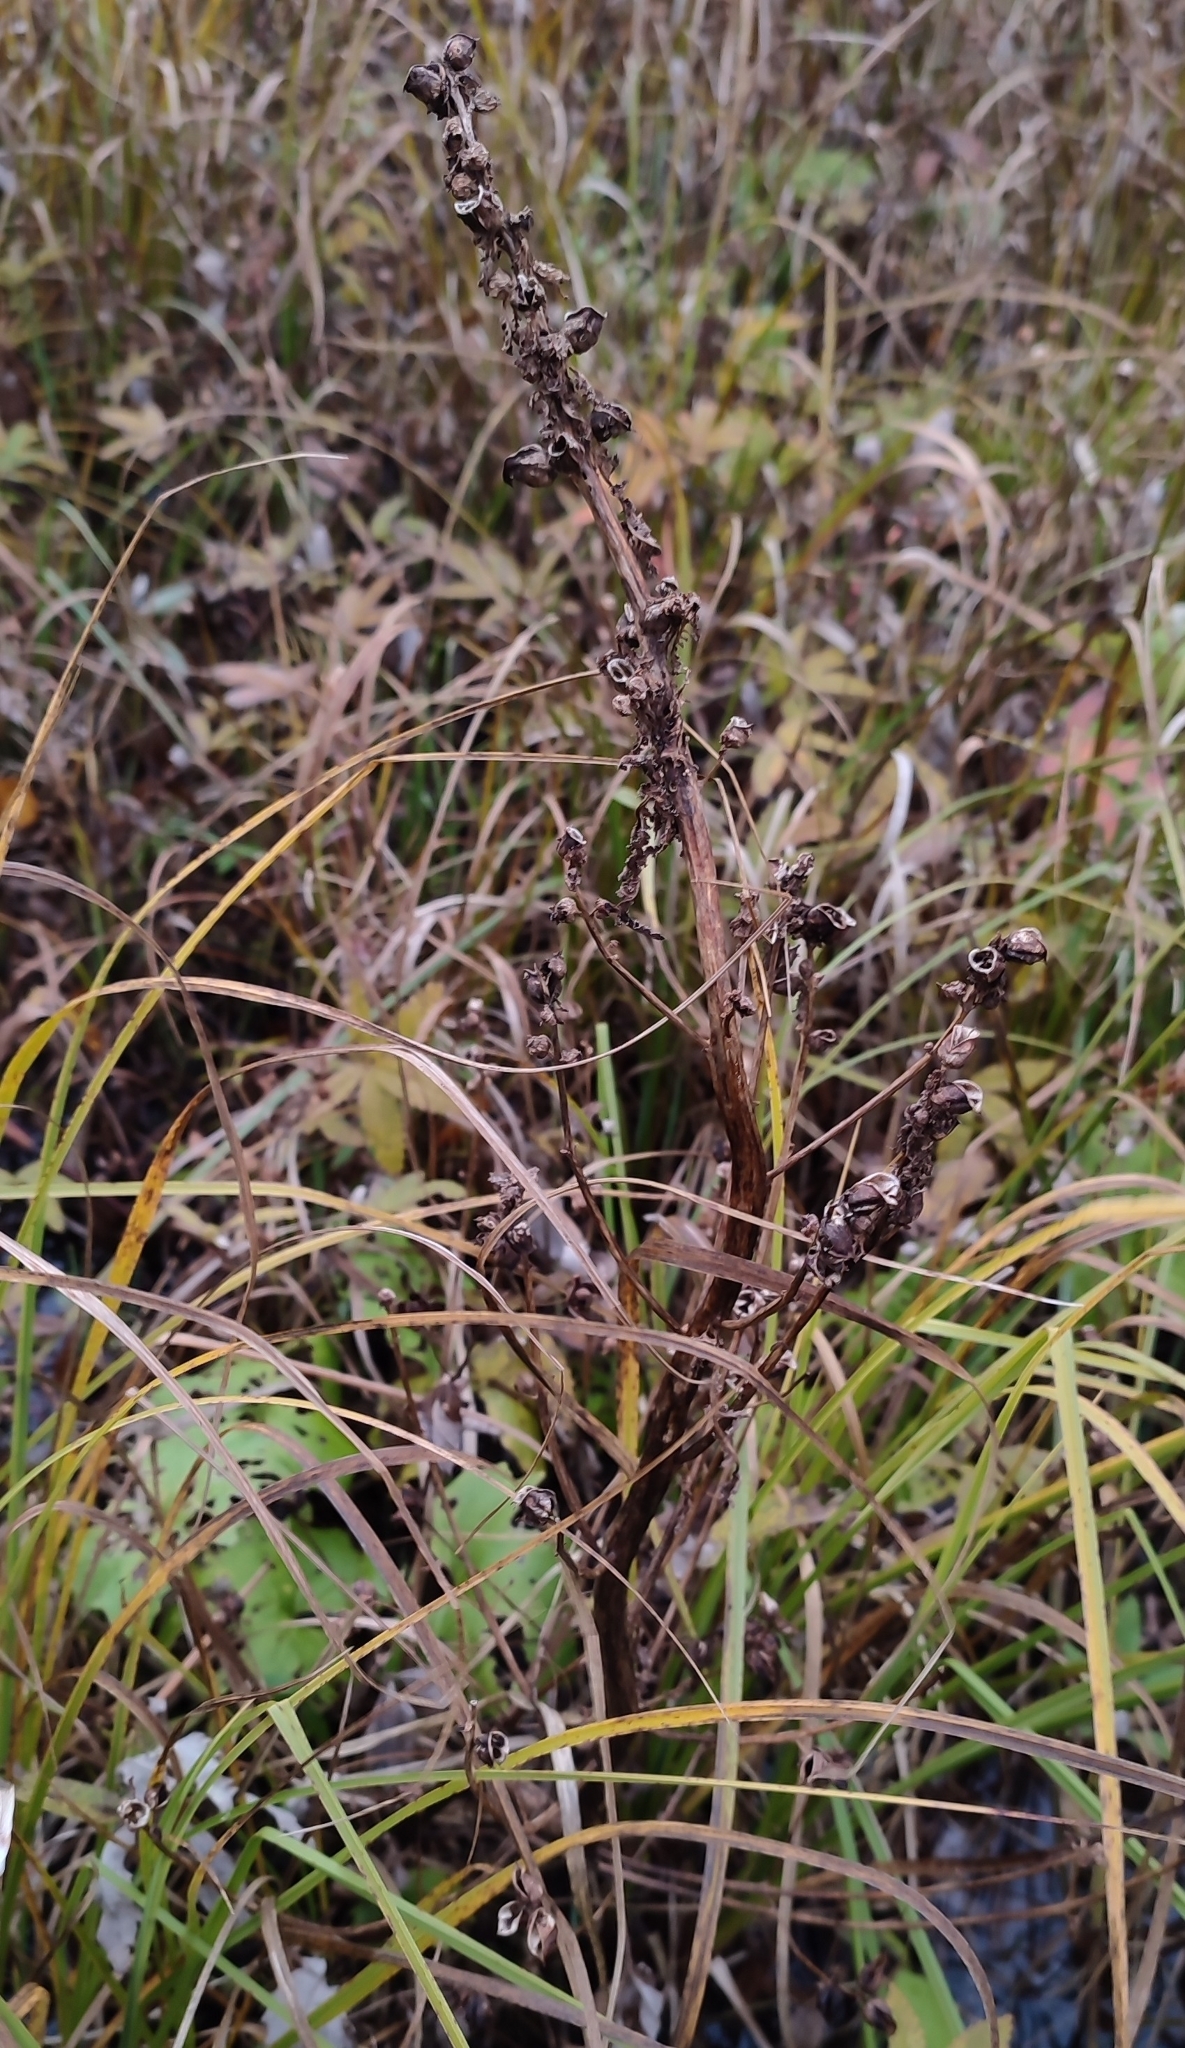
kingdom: Plantae
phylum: Tracheophyta
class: Magnoliopsida
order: Lamiales
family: Orobanchaceae
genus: Pedicularis
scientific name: Pedicularis palustris
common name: Marsh lousewort
